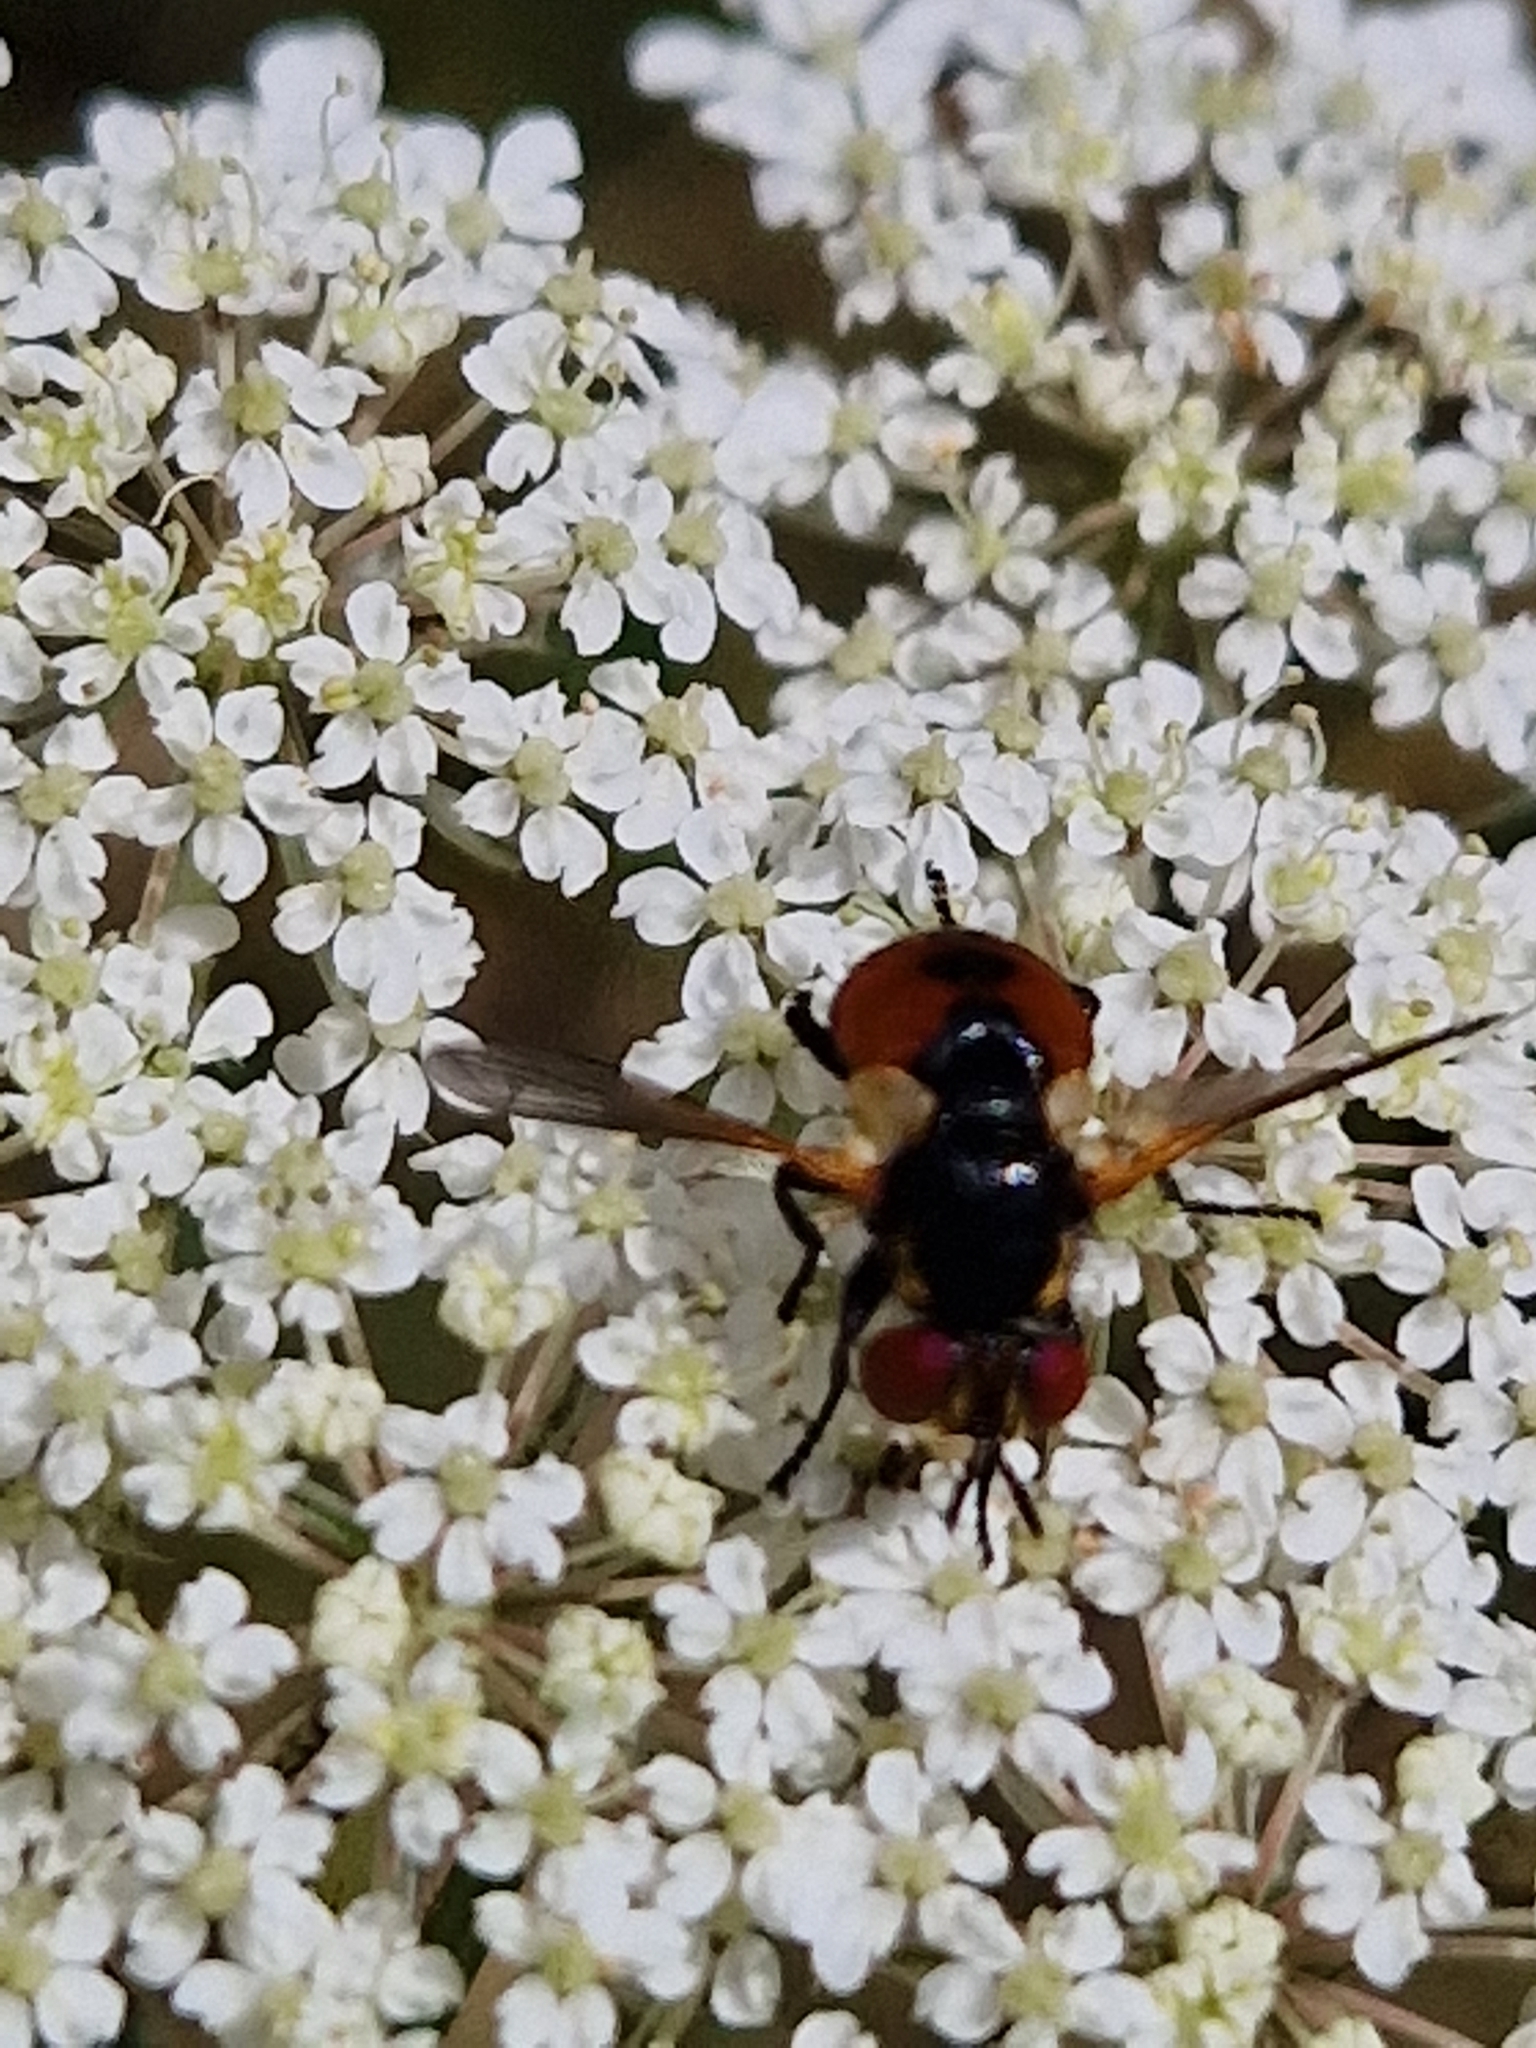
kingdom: Animalia
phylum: Arthropoda
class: Insecta
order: Diptera
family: Tachinidae
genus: Gymnosoma
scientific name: Gymnosoma rotundatum
